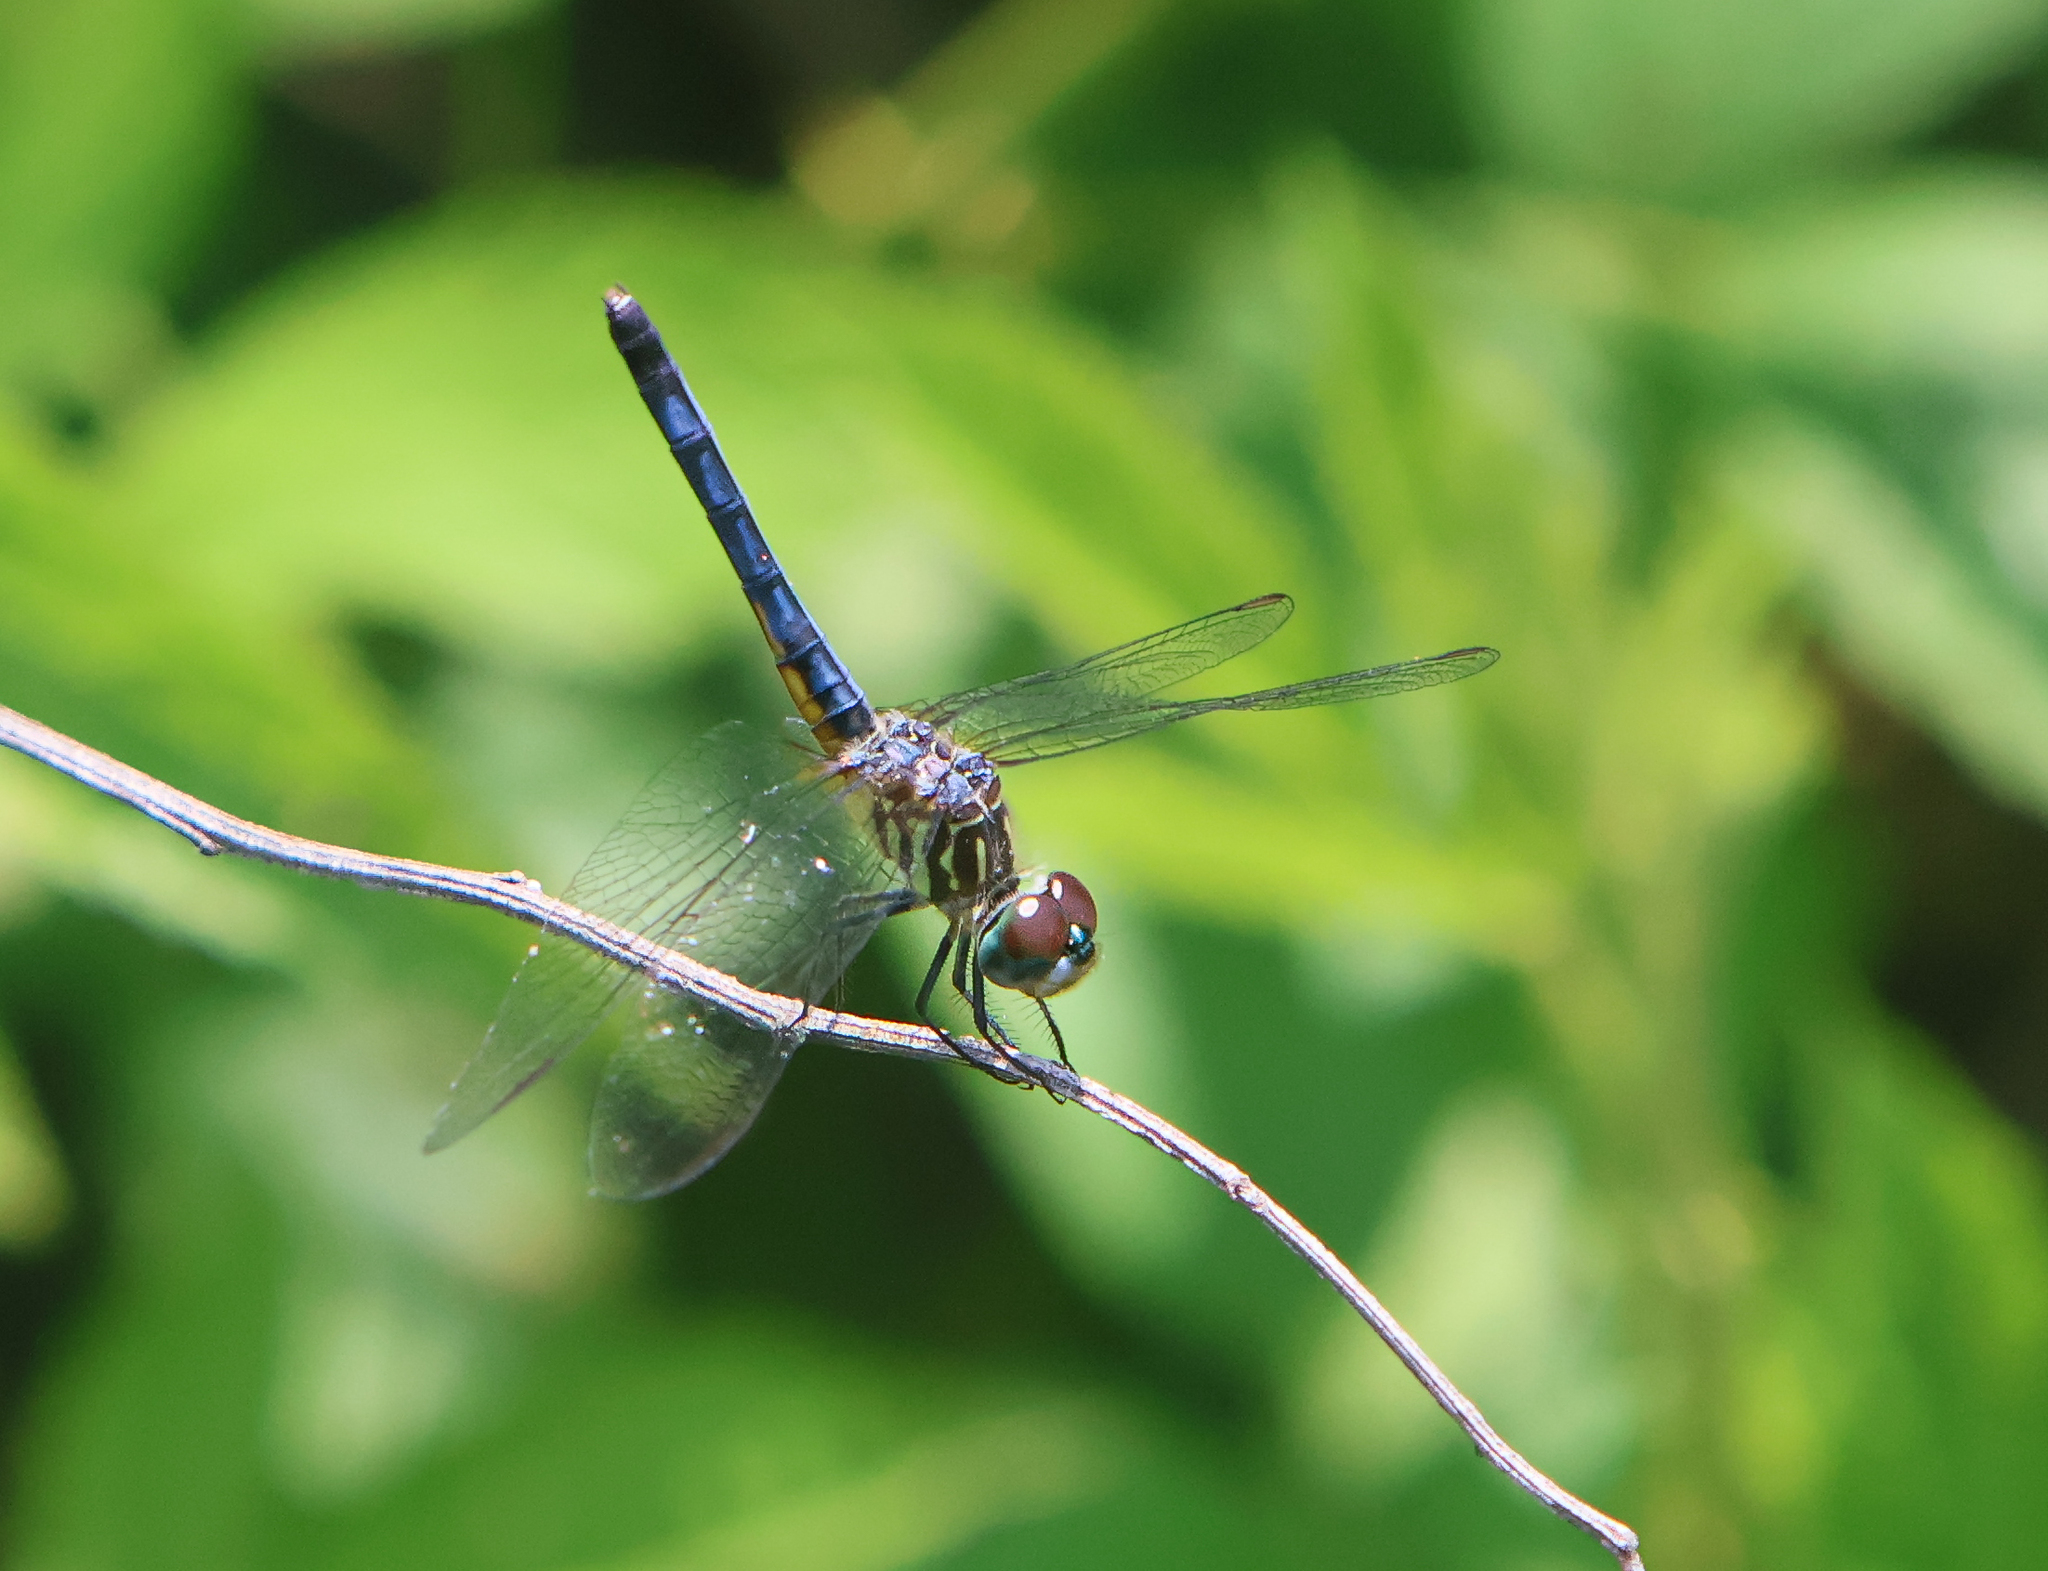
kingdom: Animalia
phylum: Arthropoda
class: Insecta
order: Odonata
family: Libellulidae
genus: Pachydiplax
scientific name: Pachydiplax longipennis
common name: Blue dasher
